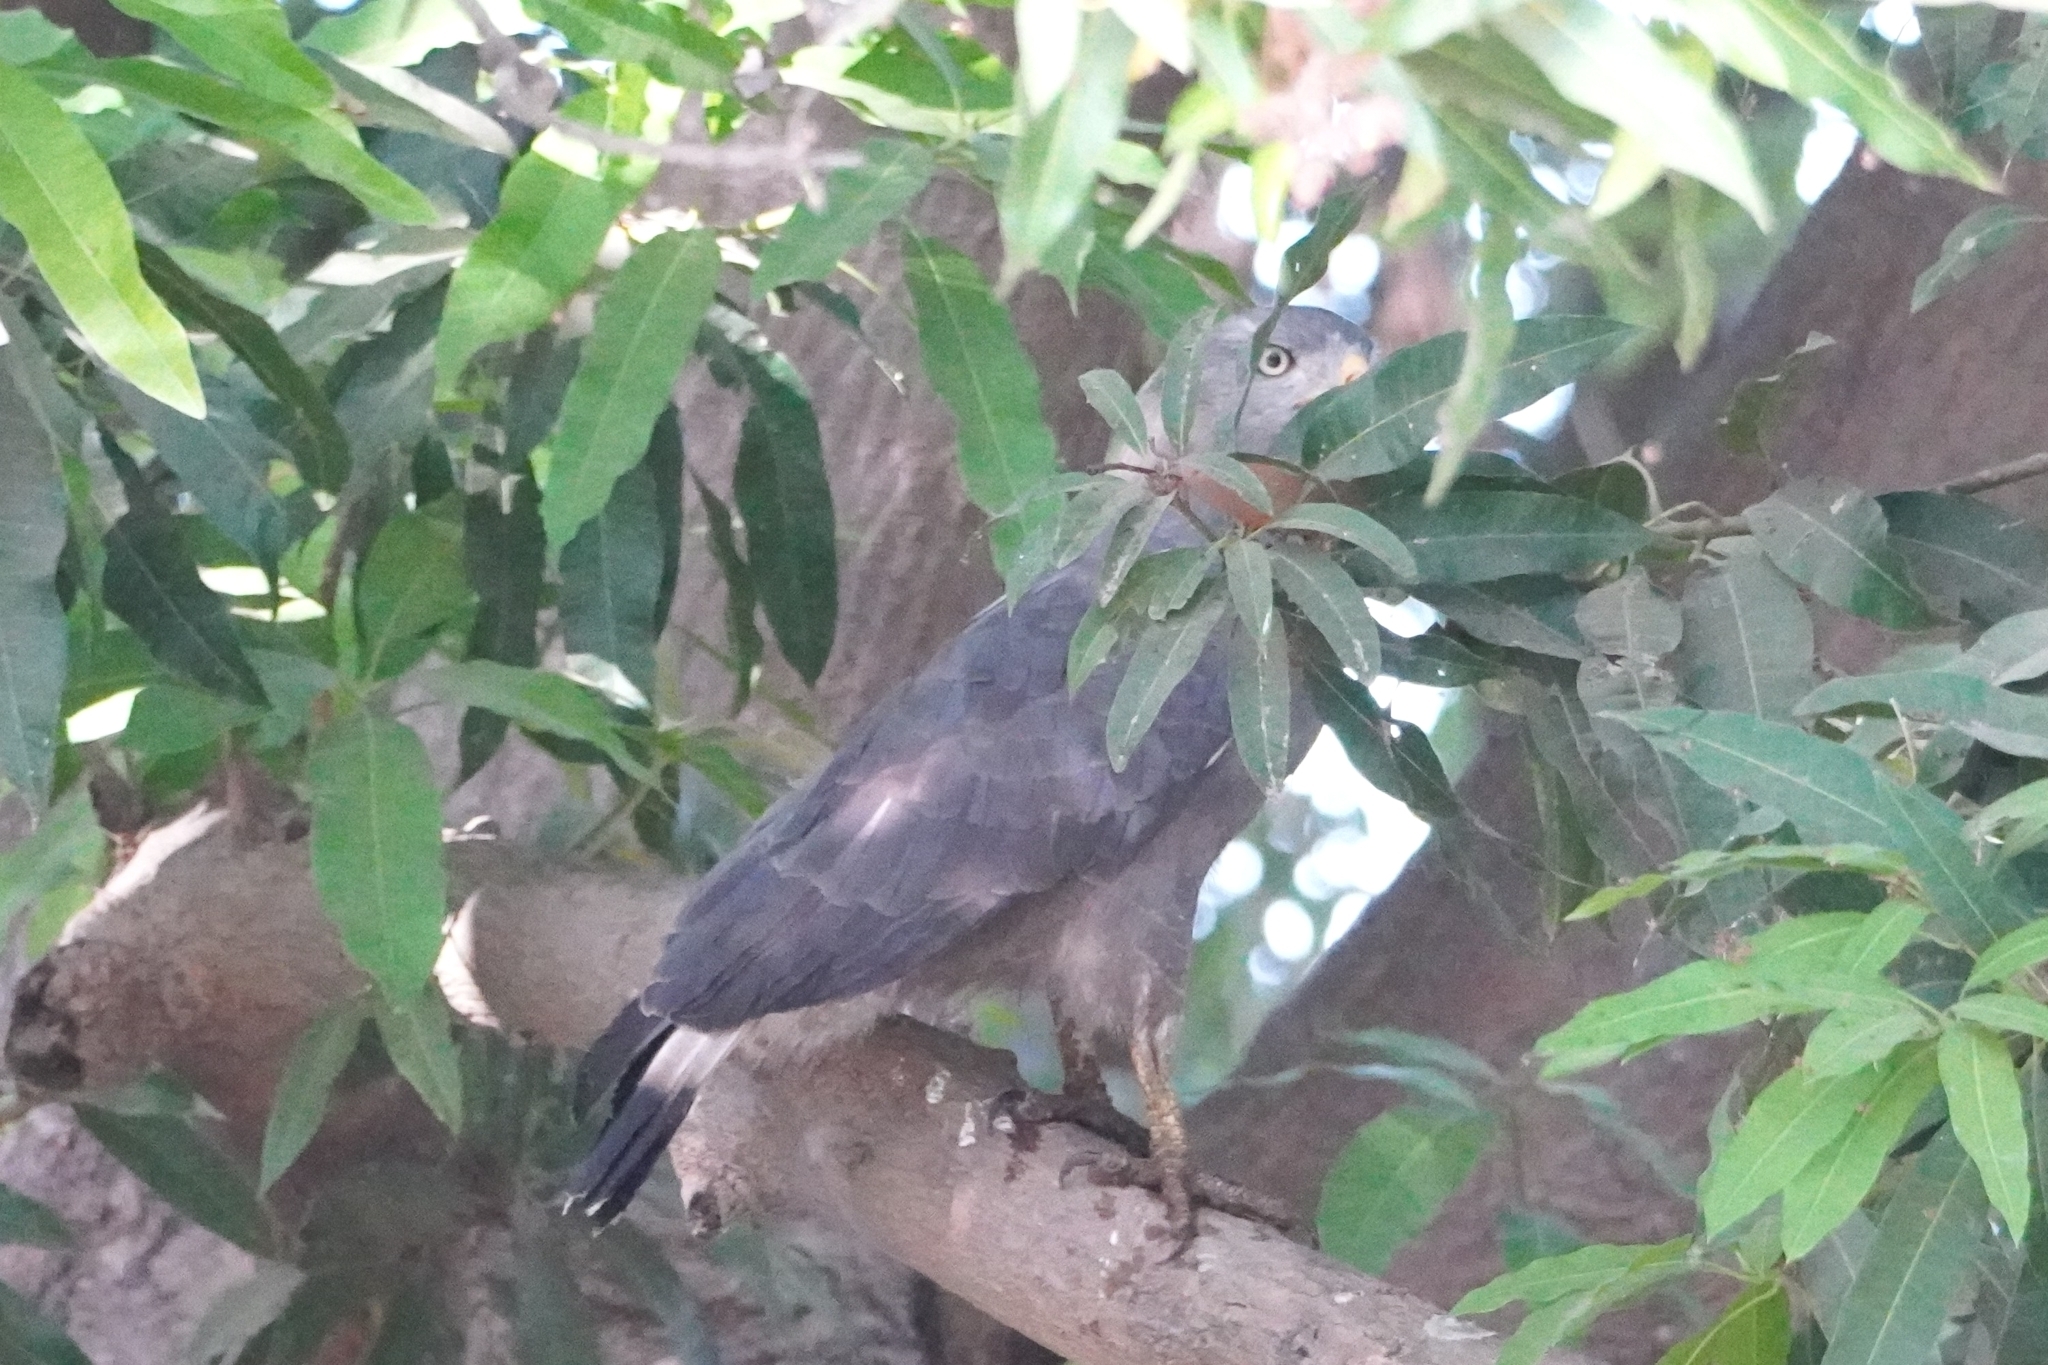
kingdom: Animalia
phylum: Chordata
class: Aves
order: Accipitriformes
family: Accipitridae
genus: Circaetus
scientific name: Circaetus cinerascens
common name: Western banded snake eagle
